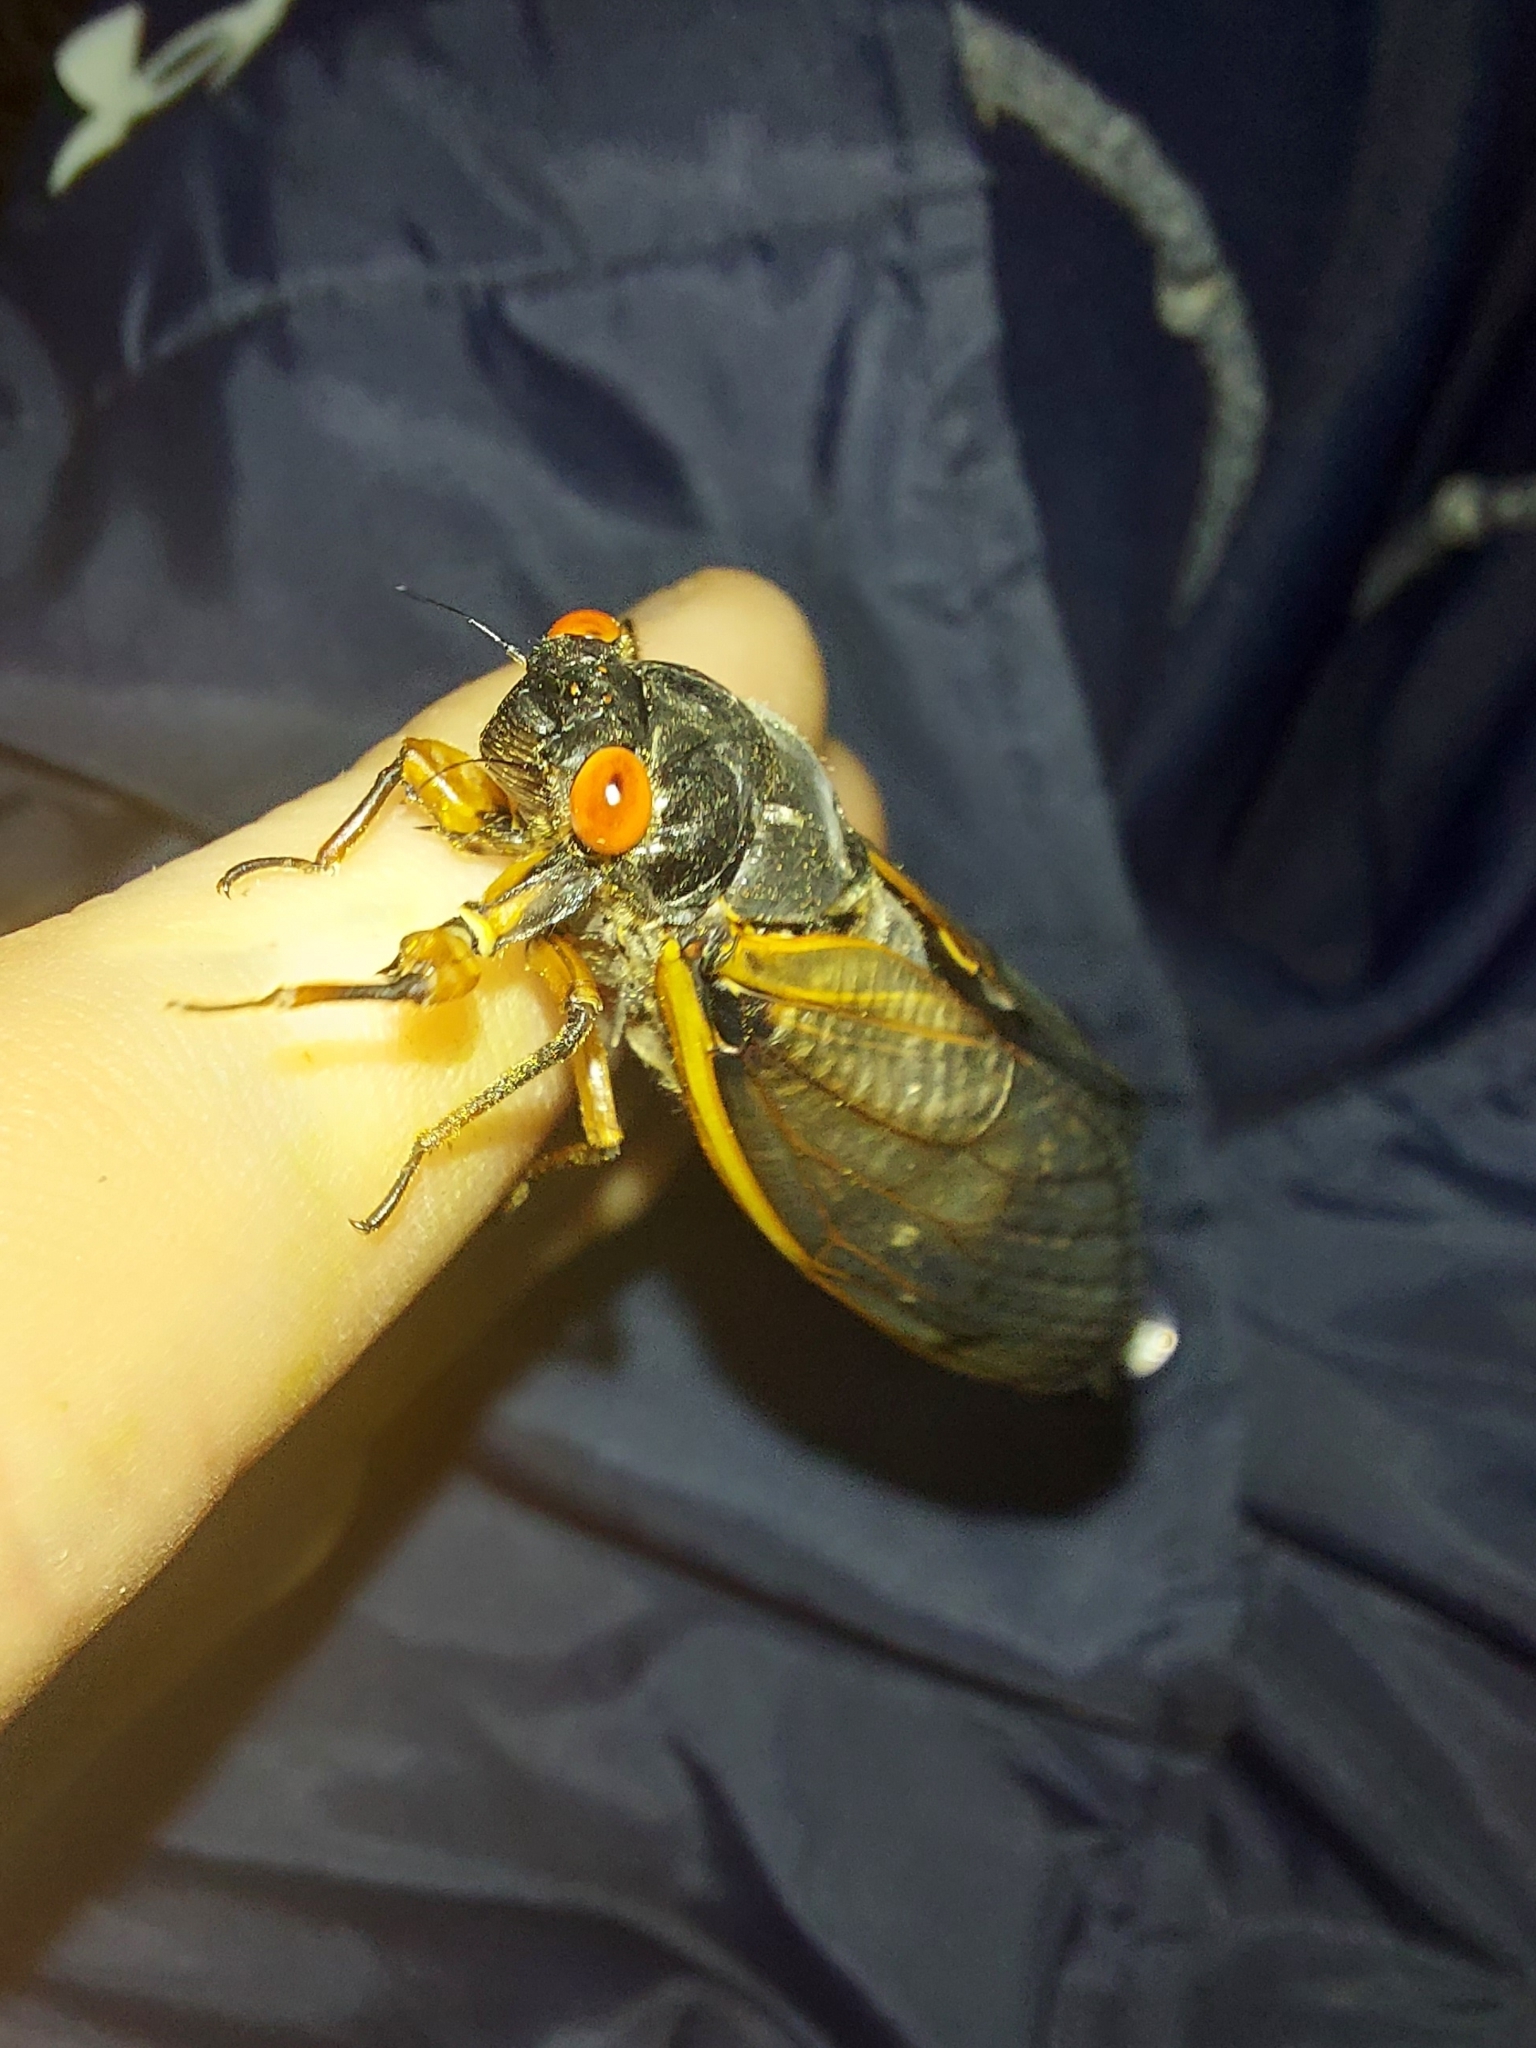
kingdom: Animalia
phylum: Arthropoda
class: Insecta
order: Hemiptera
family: Cicadidae
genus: Magicicada
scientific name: Magicicada septendecim
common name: Periodical cicada
